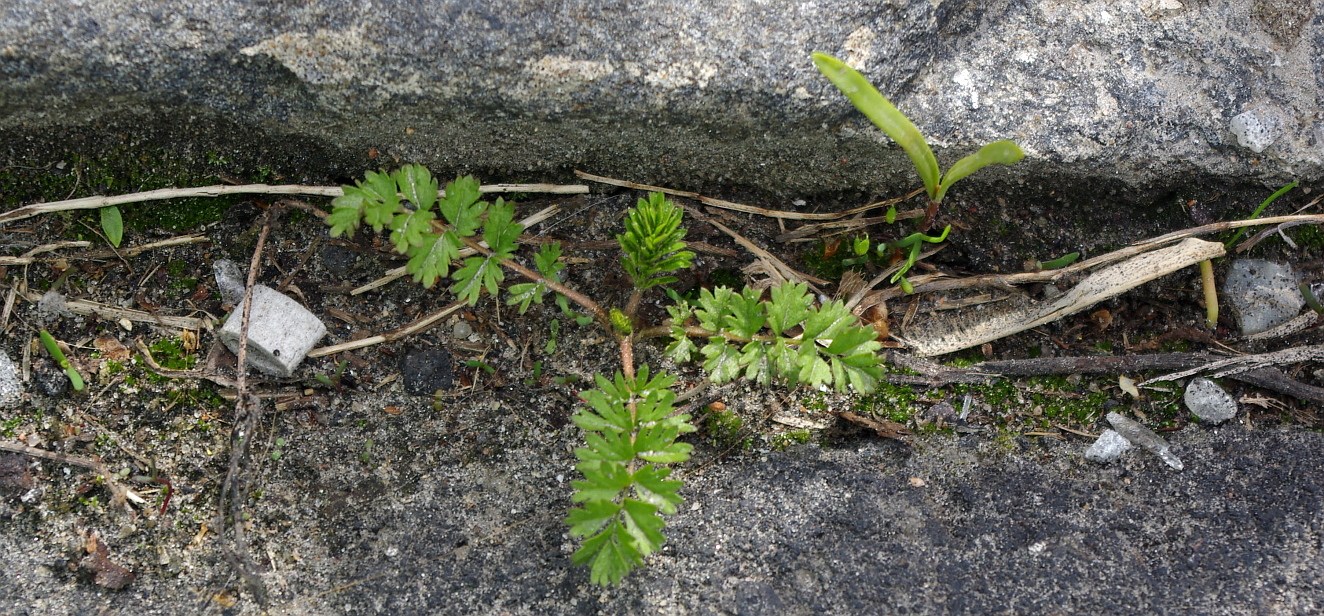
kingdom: Plantae
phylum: Tracheophyta
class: Magnoliopsida
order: Rosales
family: Rosaceae
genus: Potentilla
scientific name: Potentilla supina
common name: Prostrate cinquefoil
